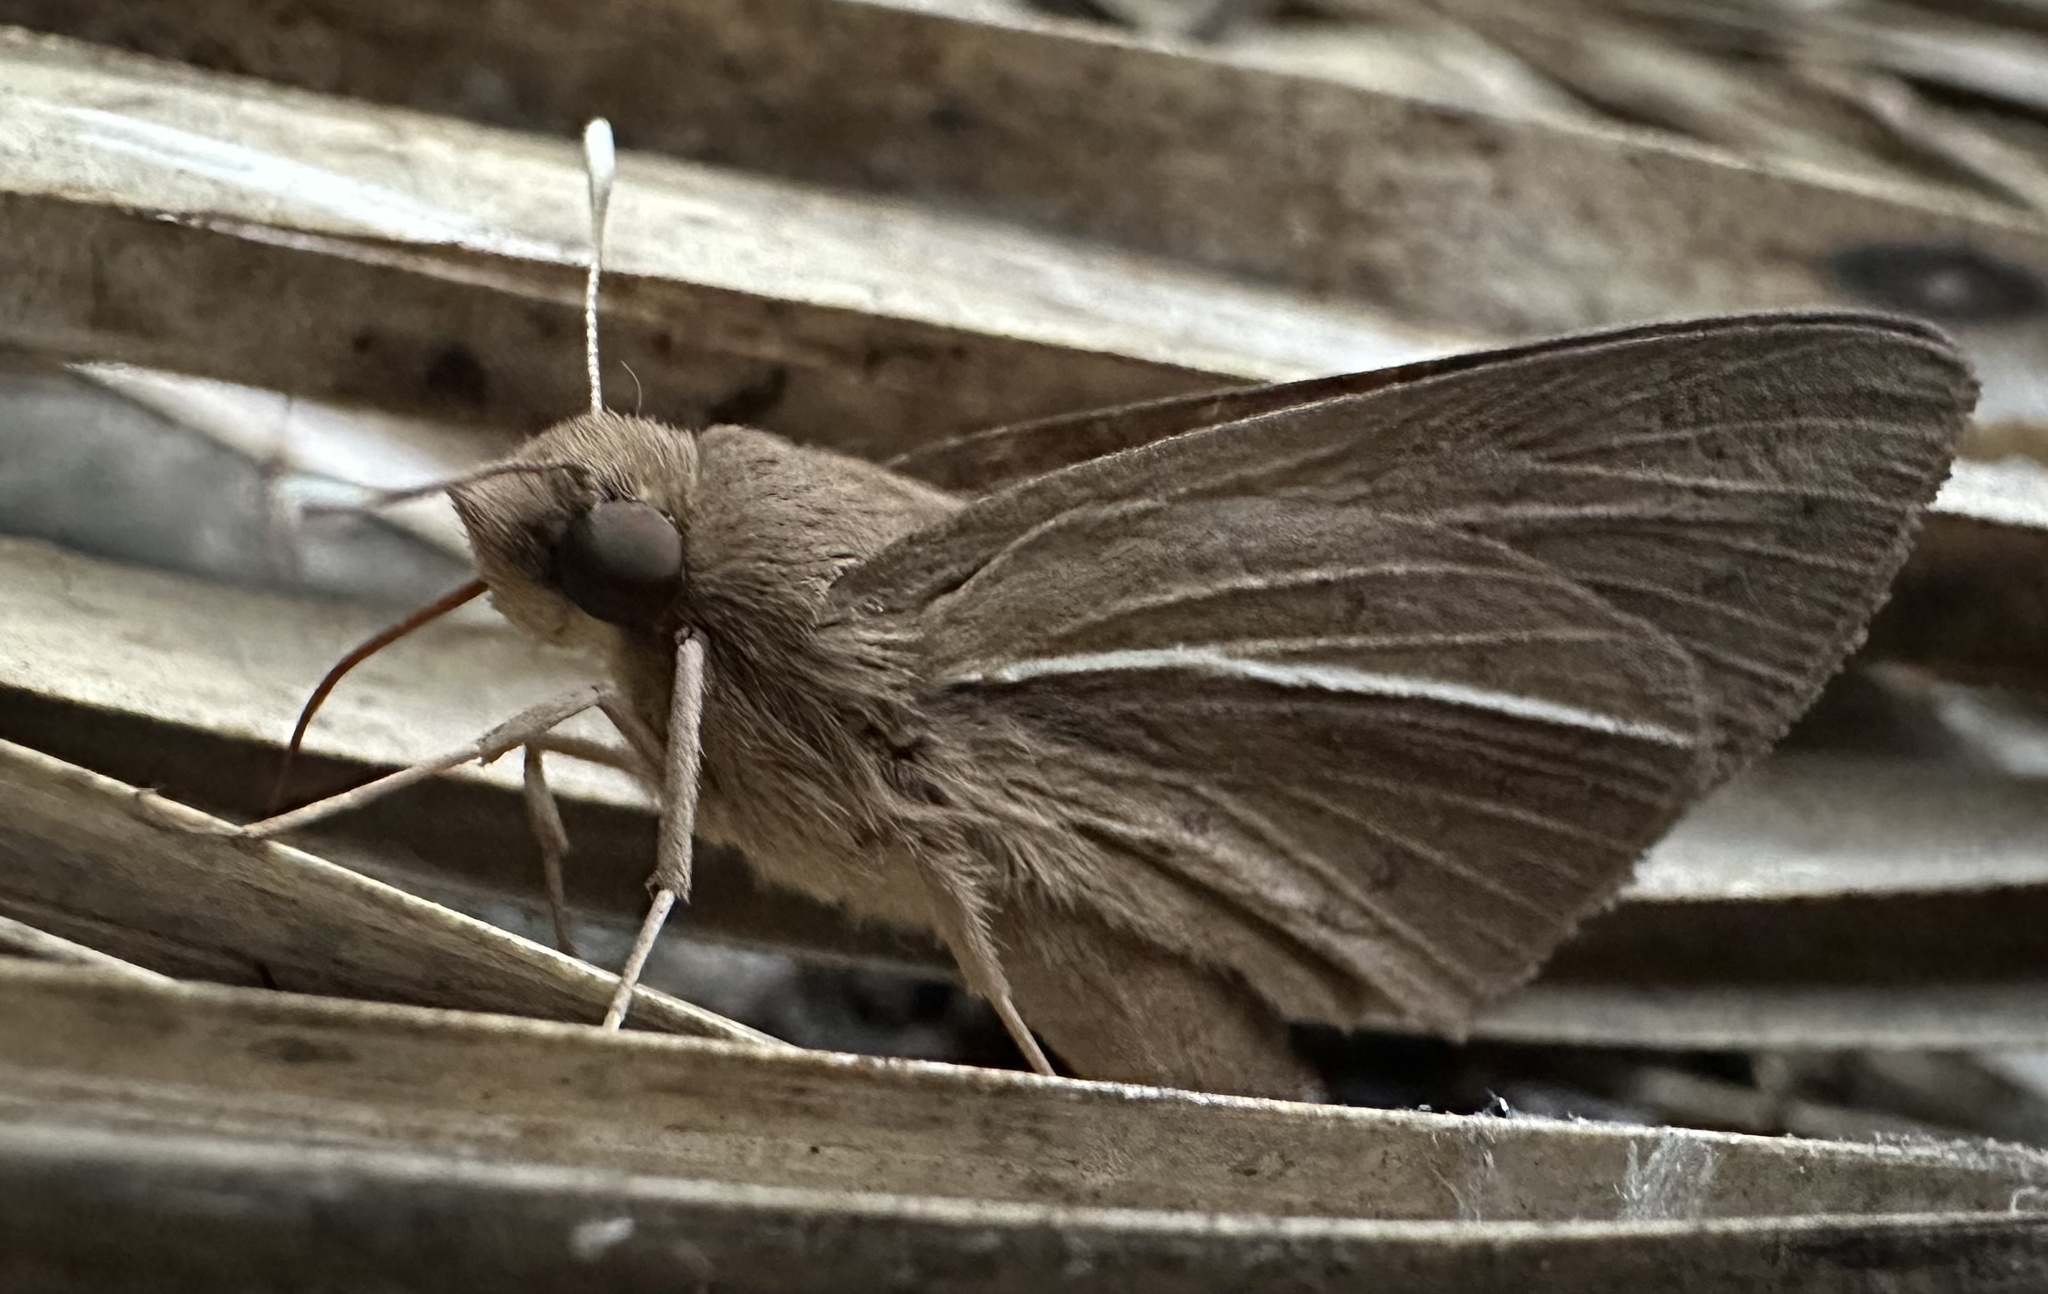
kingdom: Animalia
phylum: Arthropoda
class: Insecta
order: Lepidoptera
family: Hesperiidae
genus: Zophopetes
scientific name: Zophopetes dysmephila
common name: Palm-tree nightfighter
